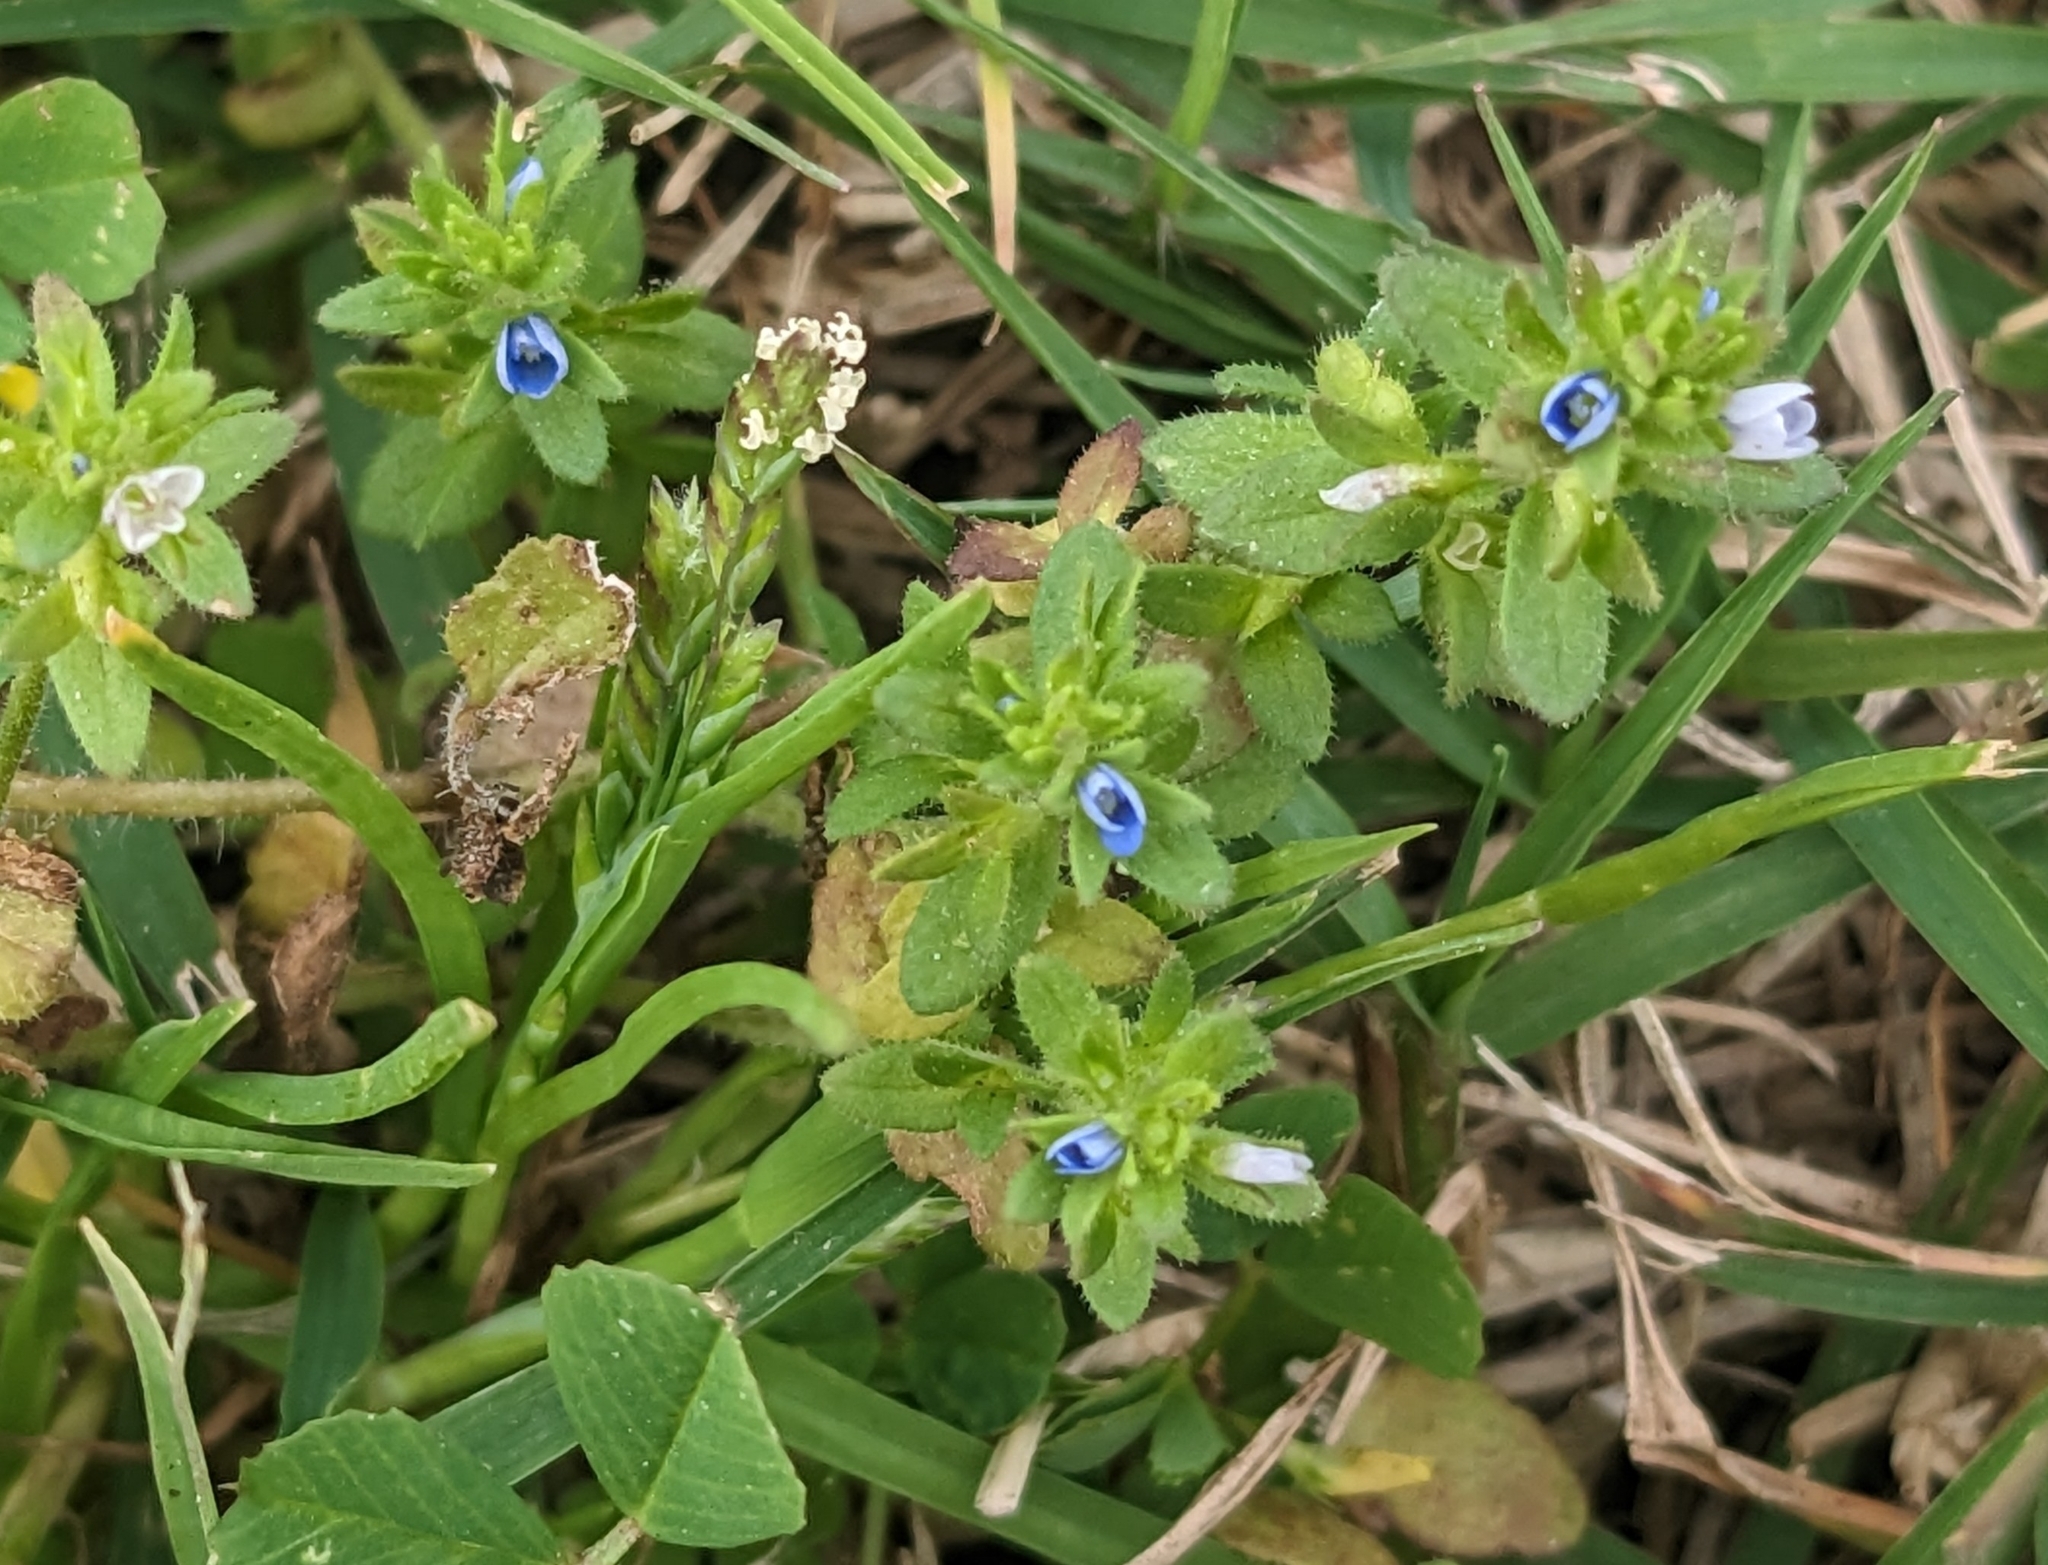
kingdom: Plantae
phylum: Tracheophyta
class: Magnoliopsida
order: Lamiales
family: Plantaginaceae
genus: Veronica
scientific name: Veronica arvensis
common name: Corn speedwell
